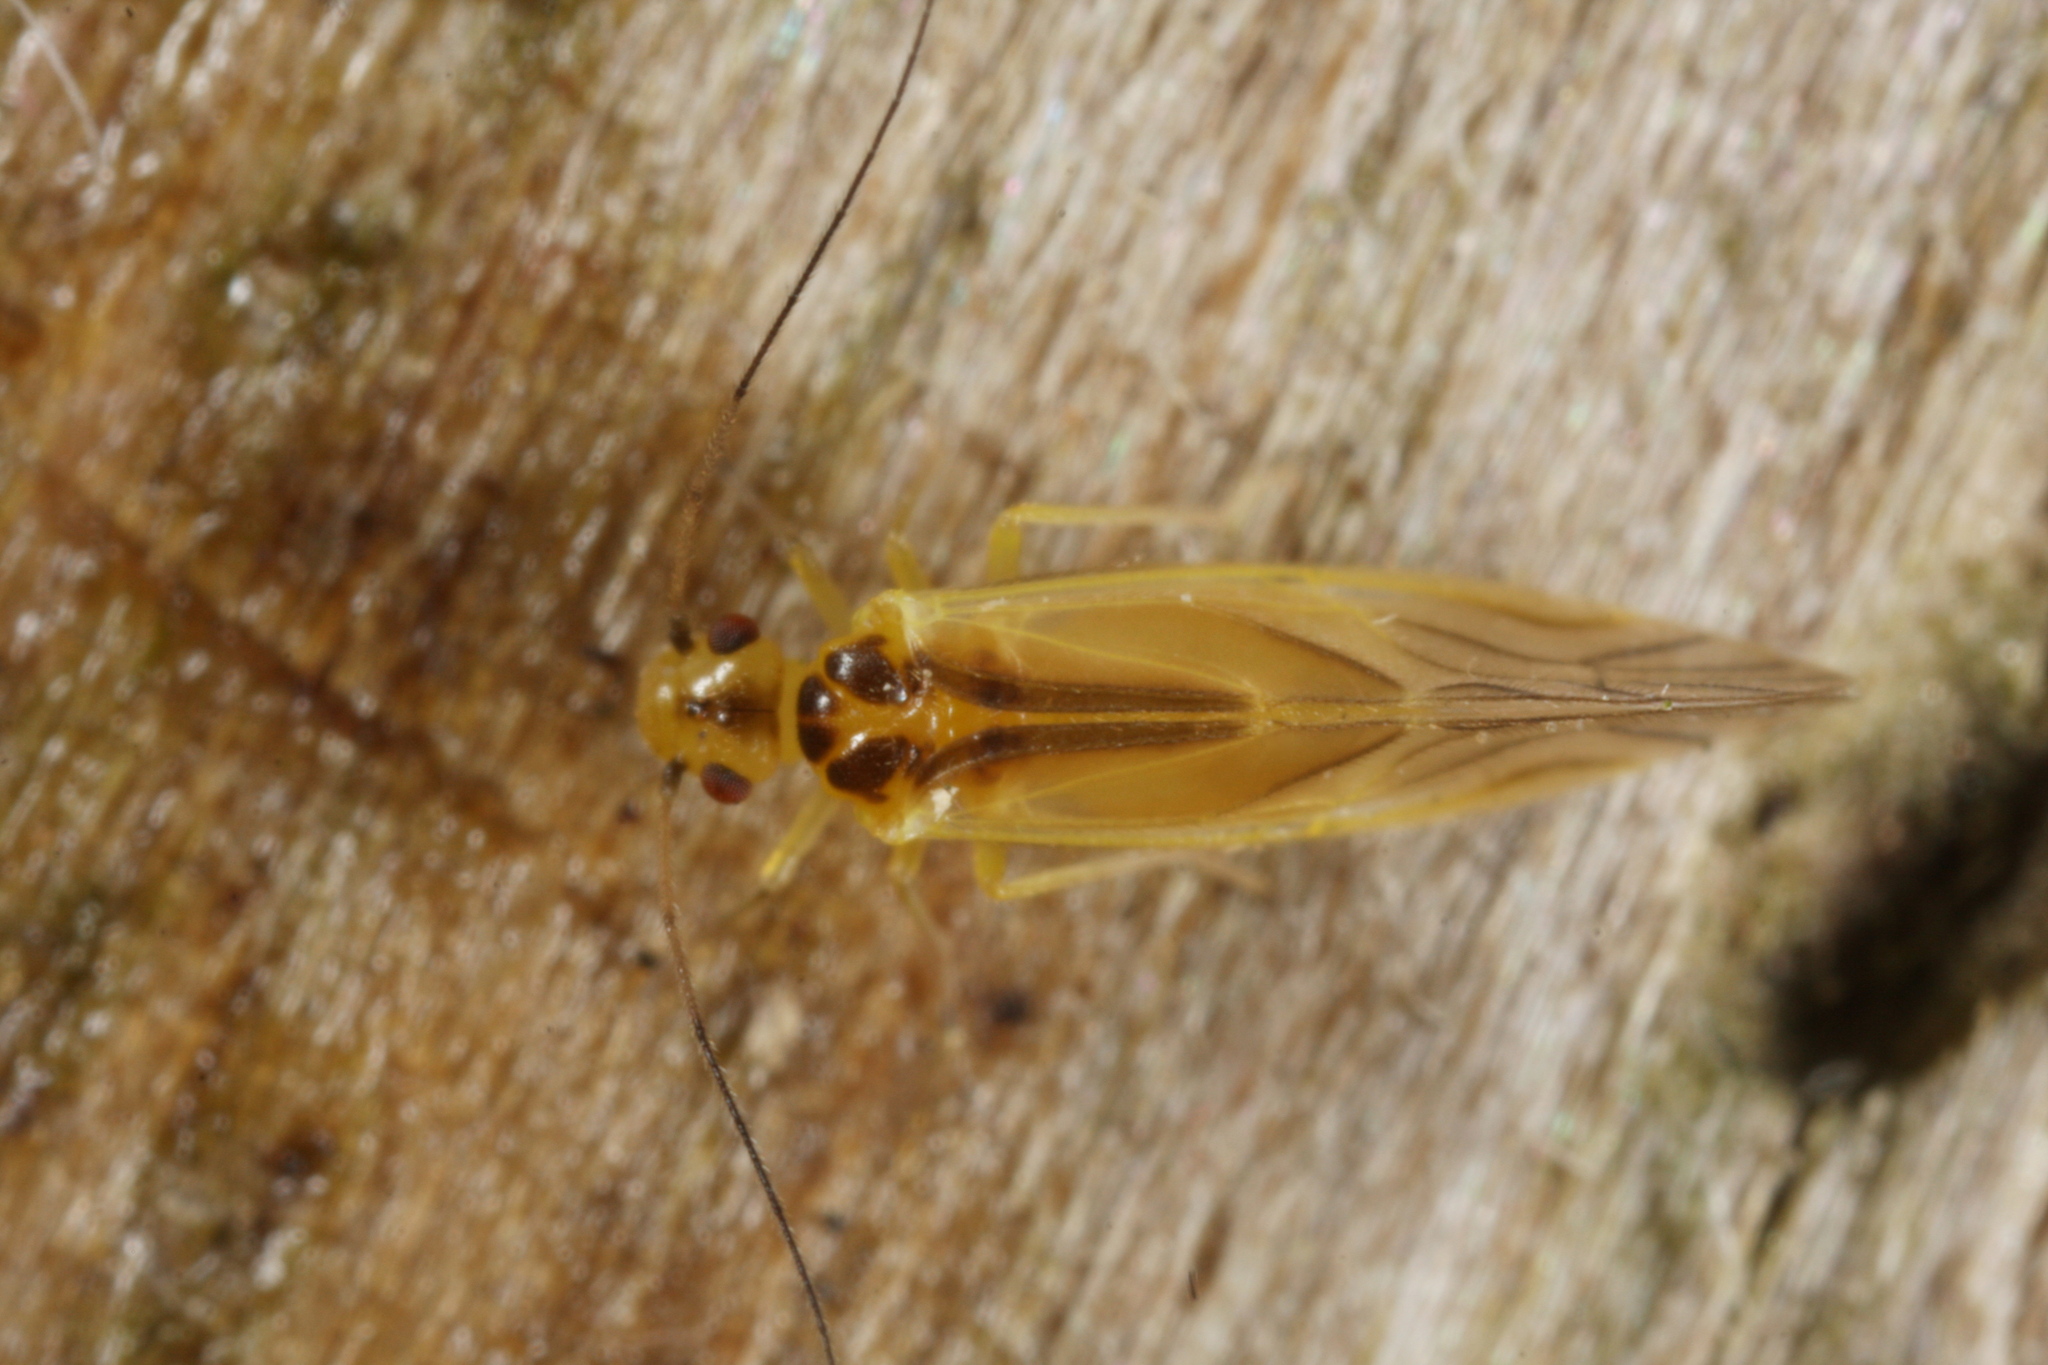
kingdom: Animalia
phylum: Arthropoda
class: Insecta
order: Psocodea
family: Caeciliusidae
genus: Valenzuela
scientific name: Valenzuela flavidus
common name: Yellow barklouse
